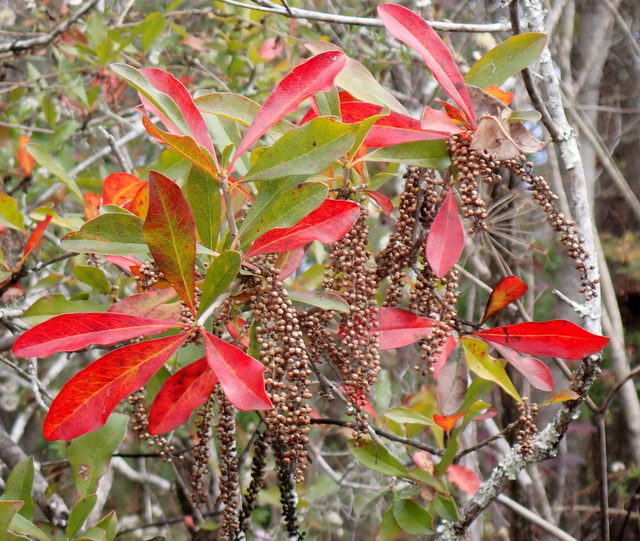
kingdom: Plantae
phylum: Tracheophyta
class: Magnoliopsida
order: Ericales
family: Cyrillaceae
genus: Cyrilla
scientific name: Cyrilla racemiflora
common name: Black titi
